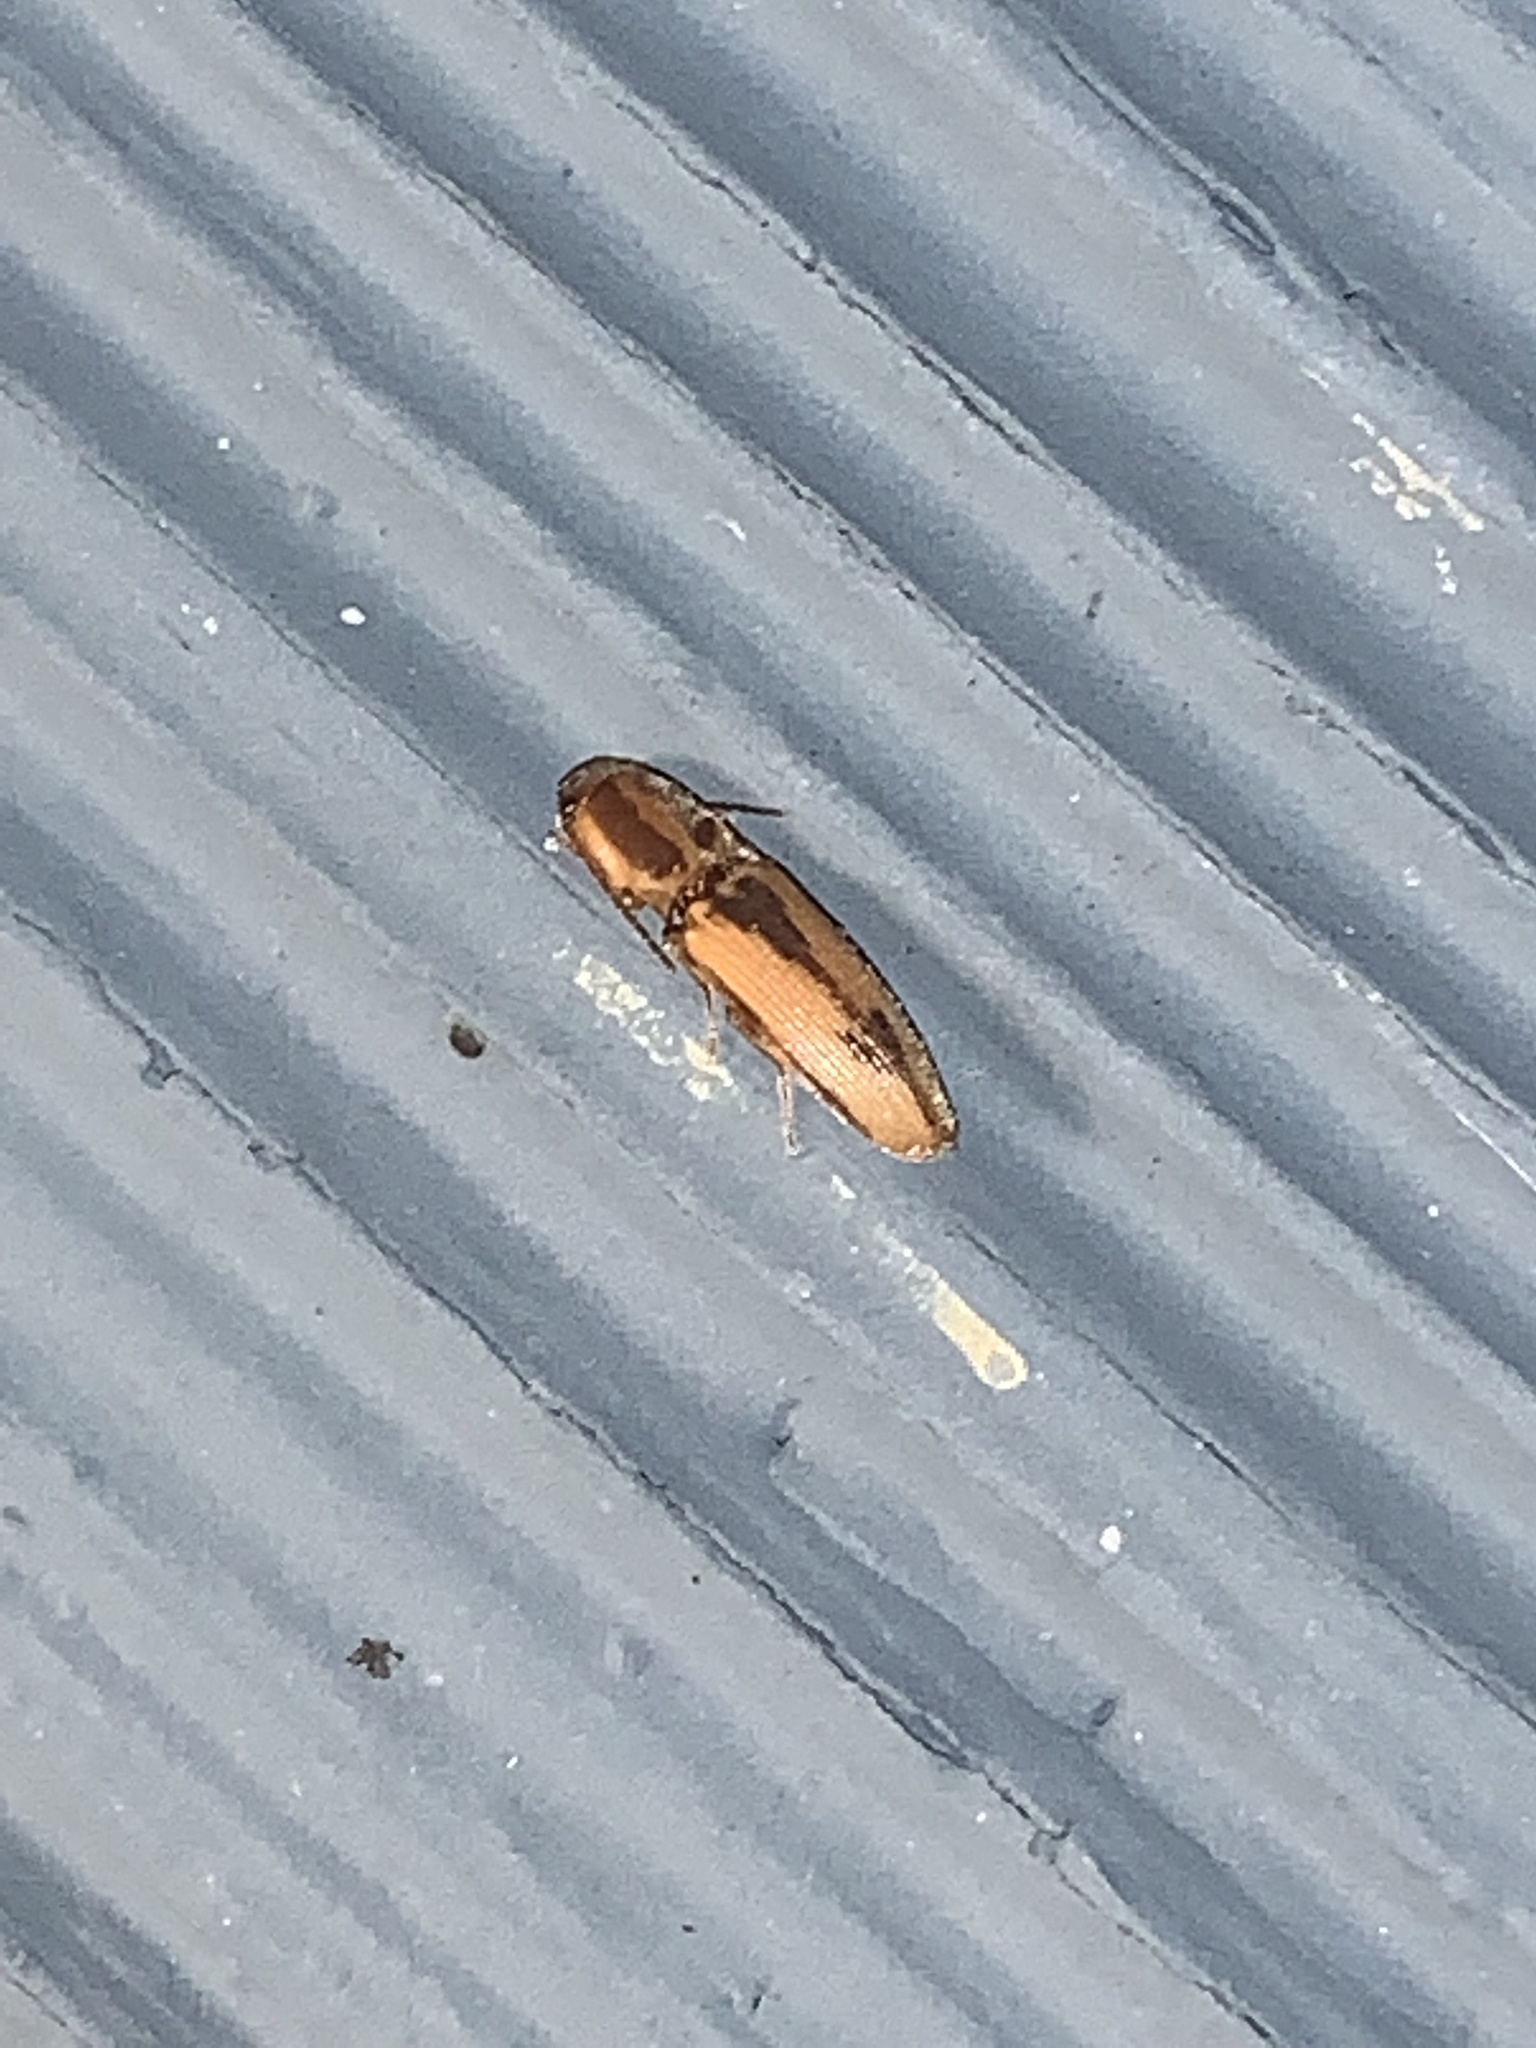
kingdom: Animalia
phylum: Arthropoda
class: Insecta
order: Coleoptera
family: Elateridae
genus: Monocrepidius
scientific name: Monocrepidius
